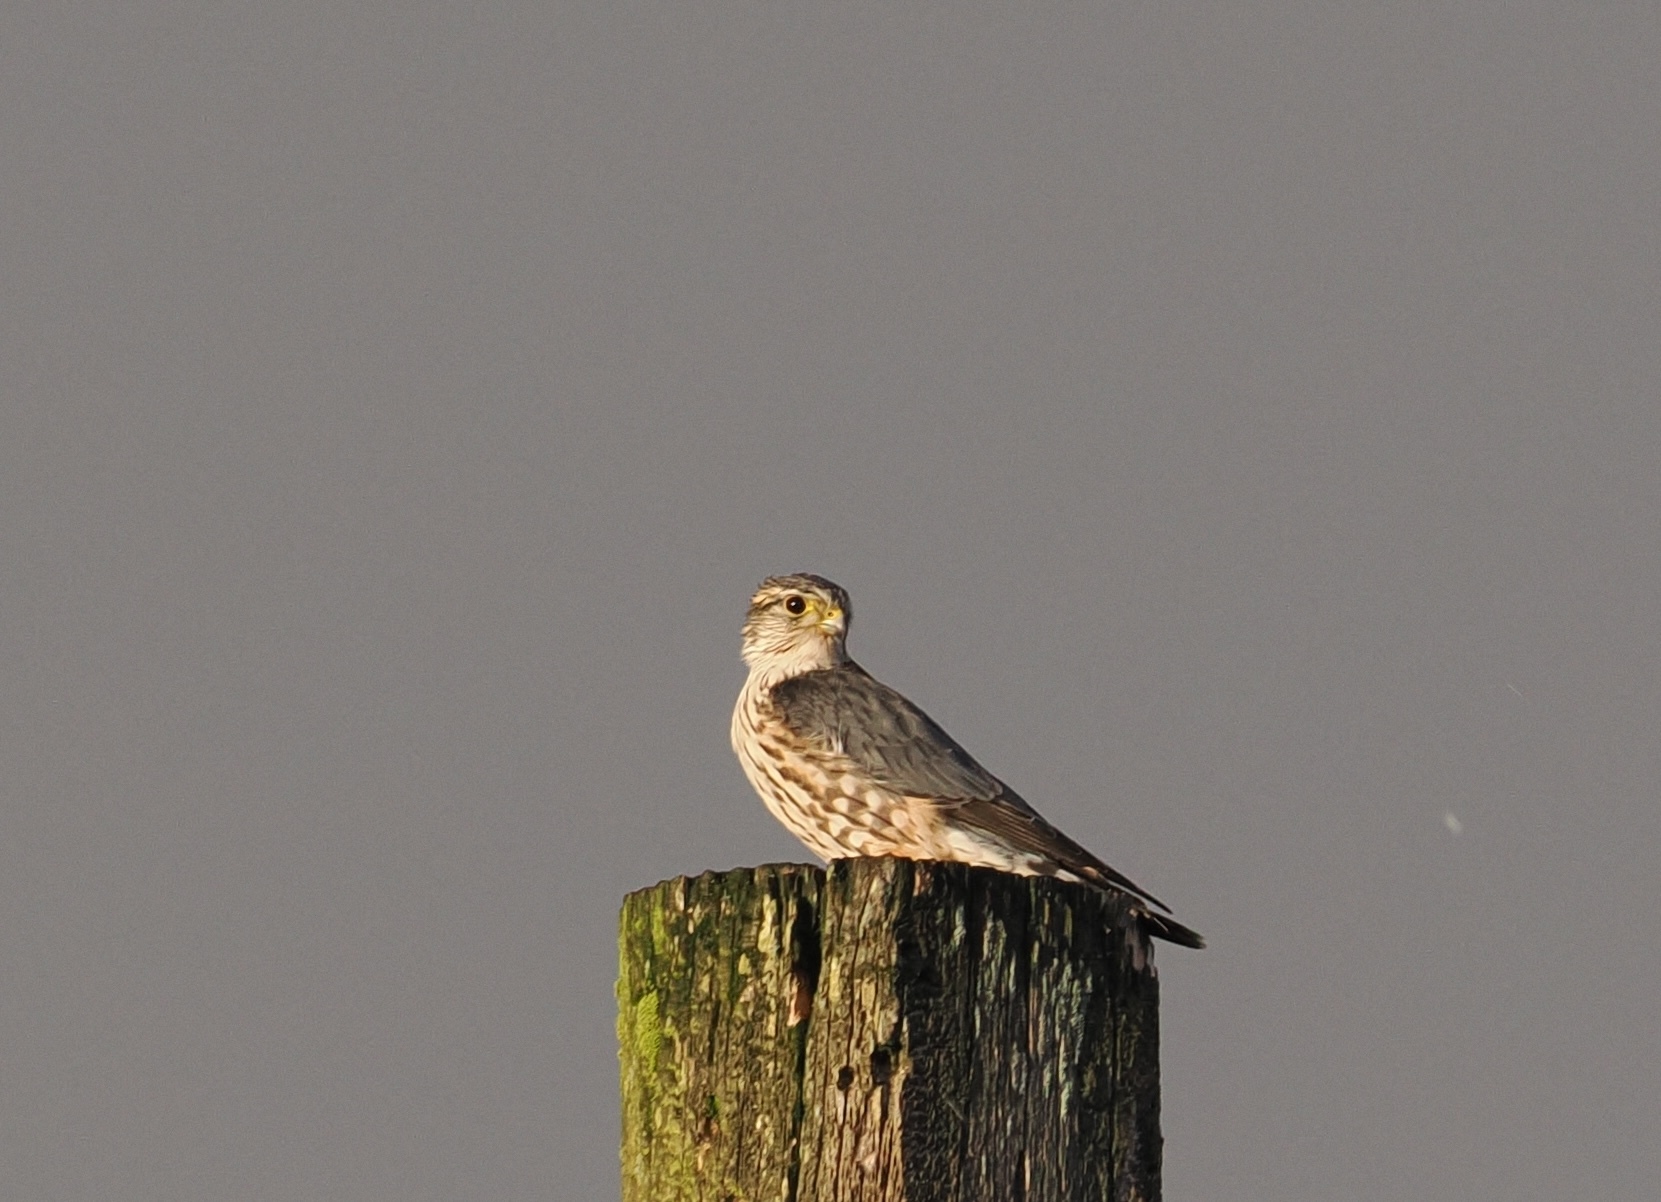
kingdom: Animalia
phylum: Chordata
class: Aves
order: Falconiformes
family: Falconidae
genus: Falco
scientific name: Falco columbarius
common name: Merlin
